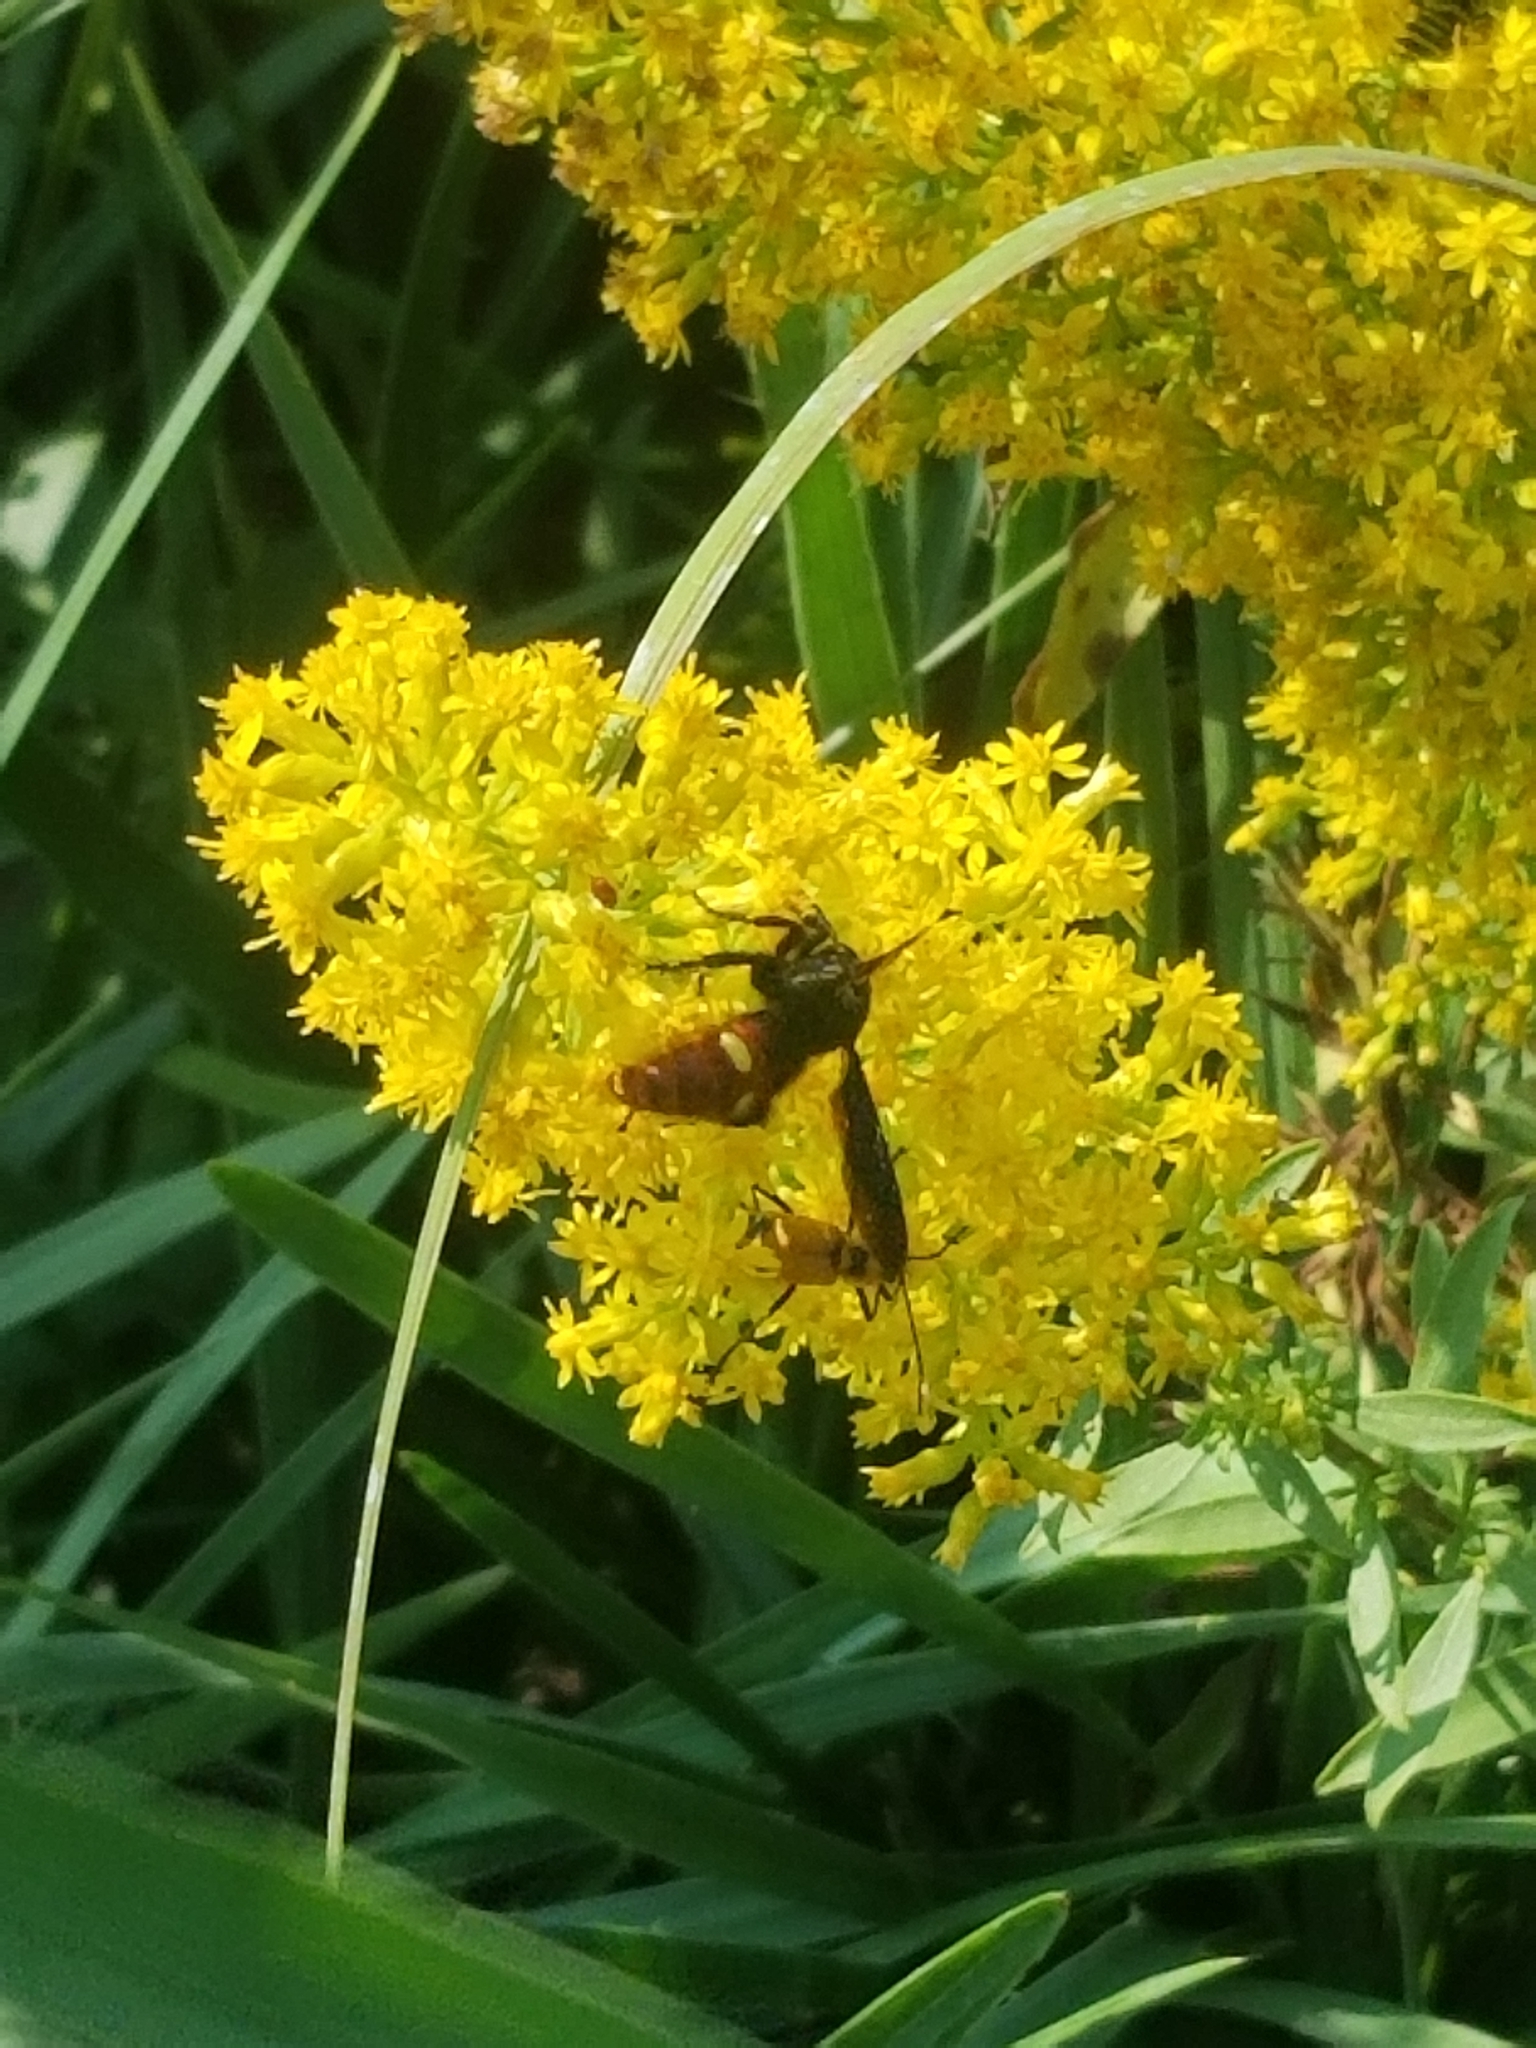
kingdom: Animalia
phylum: Arthropoda
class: Insecta
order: Hymenoptera
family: Scoliidae
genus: Scolia
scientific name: Scolia dubia
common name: Blue-winged scoliid wasp
